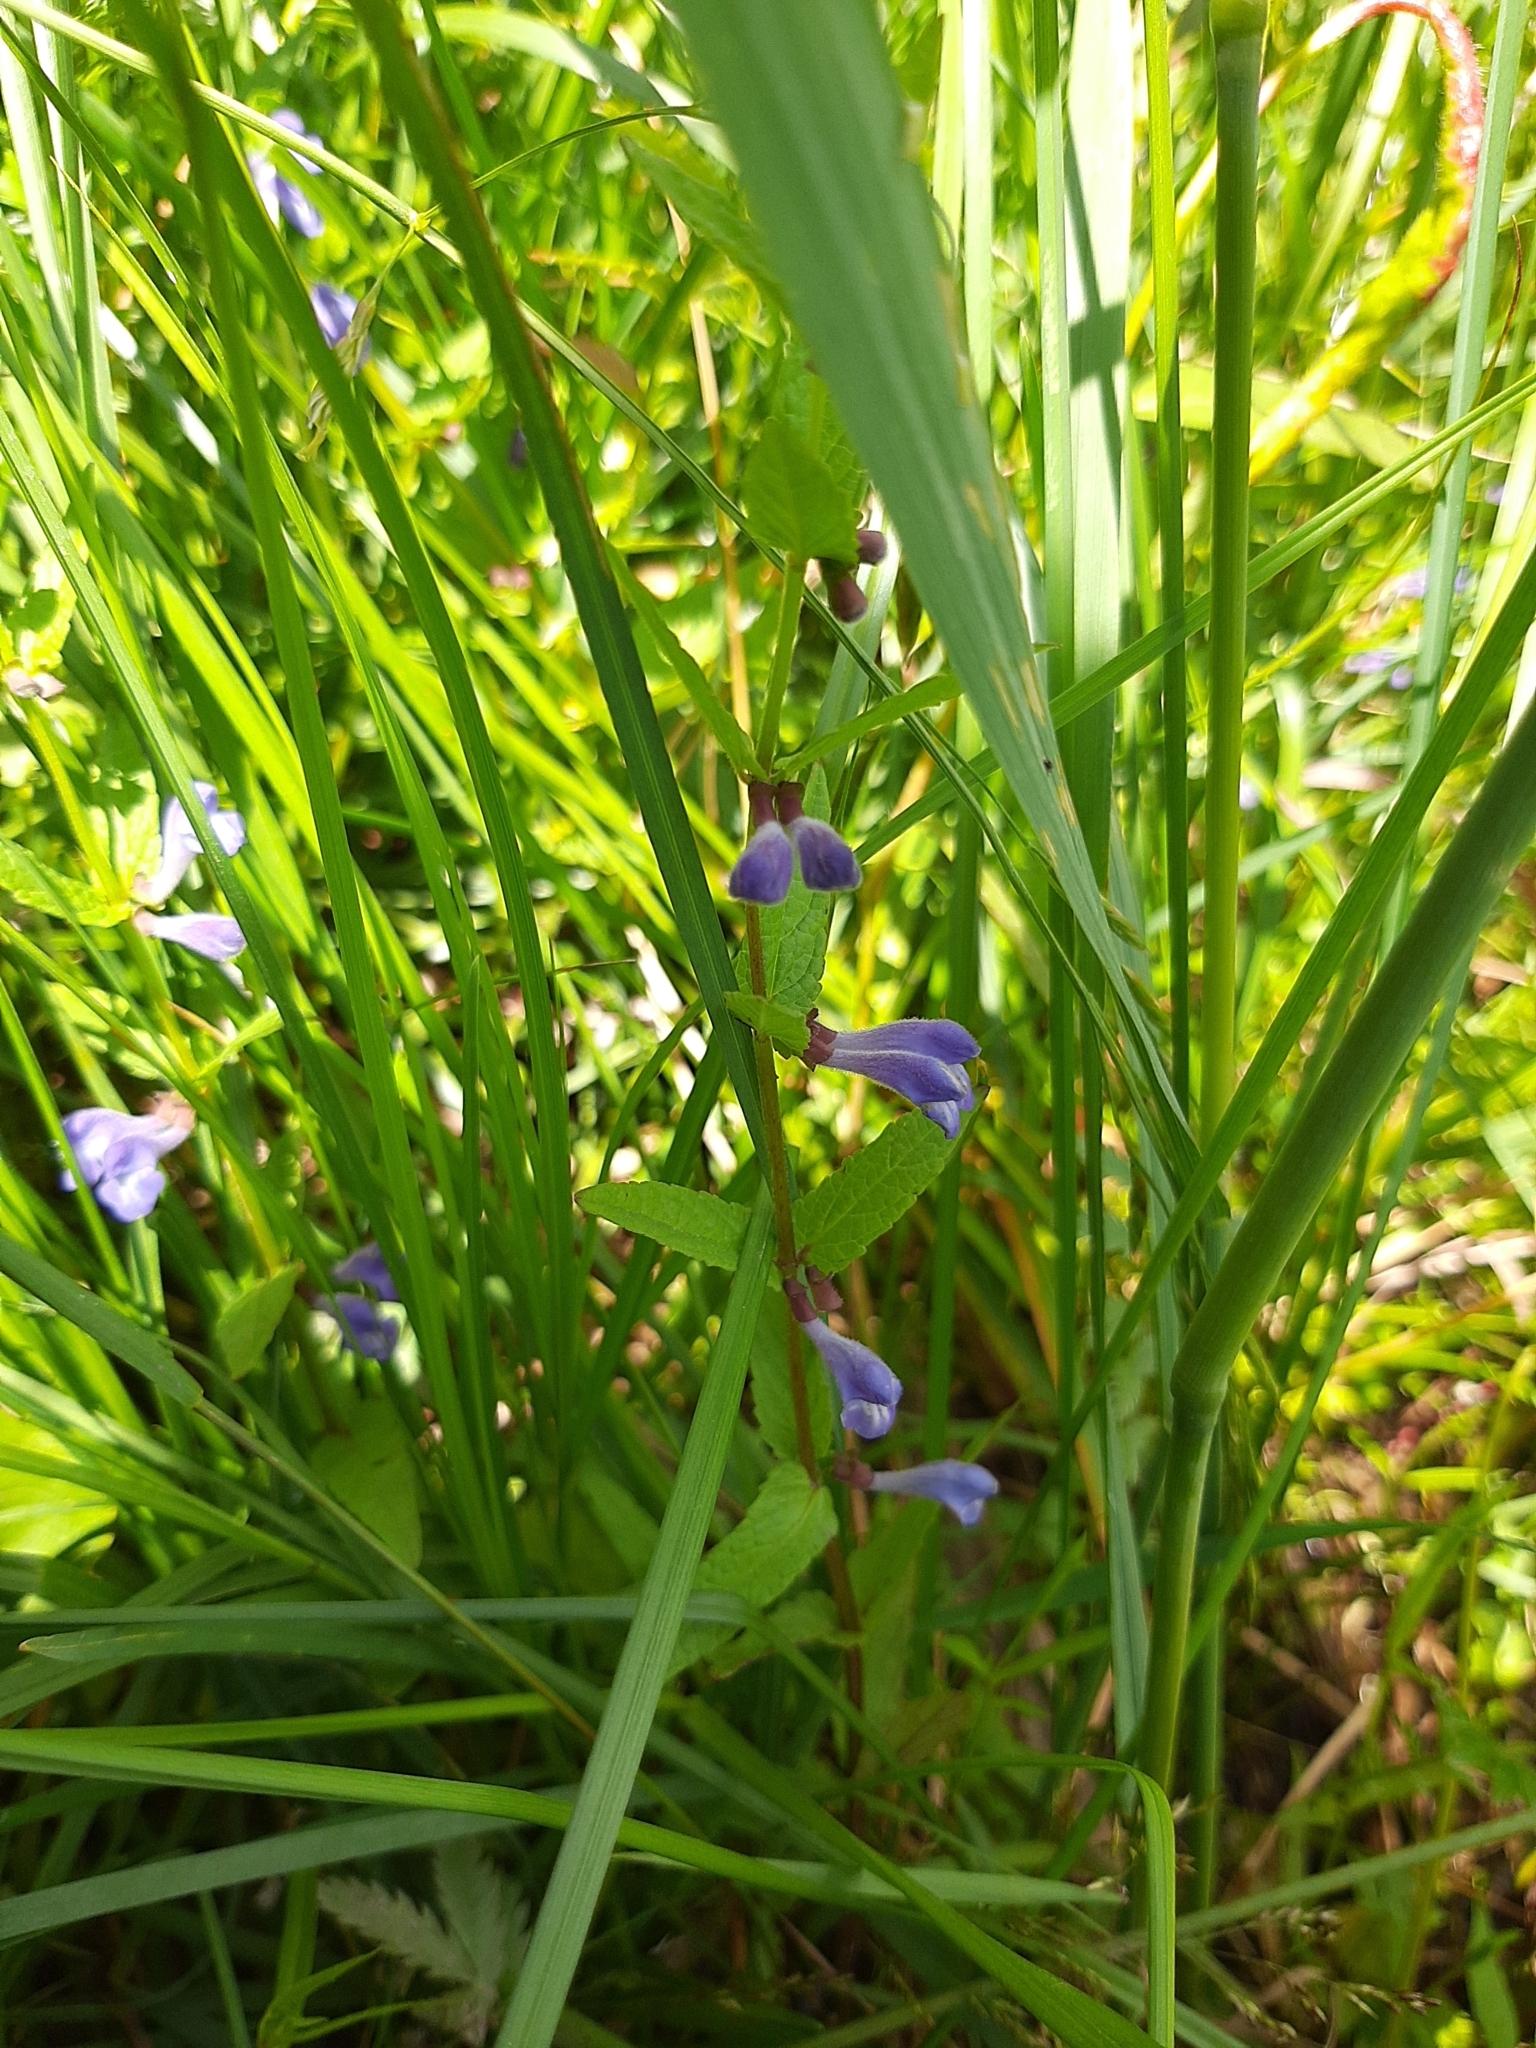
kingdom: Plantae
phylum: Tracheophyta
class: Magnoliopsida
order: Lamiales
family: Lamiaceae
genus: Scutellaria
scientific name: Scutellaria galericulata
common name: Skullcap
